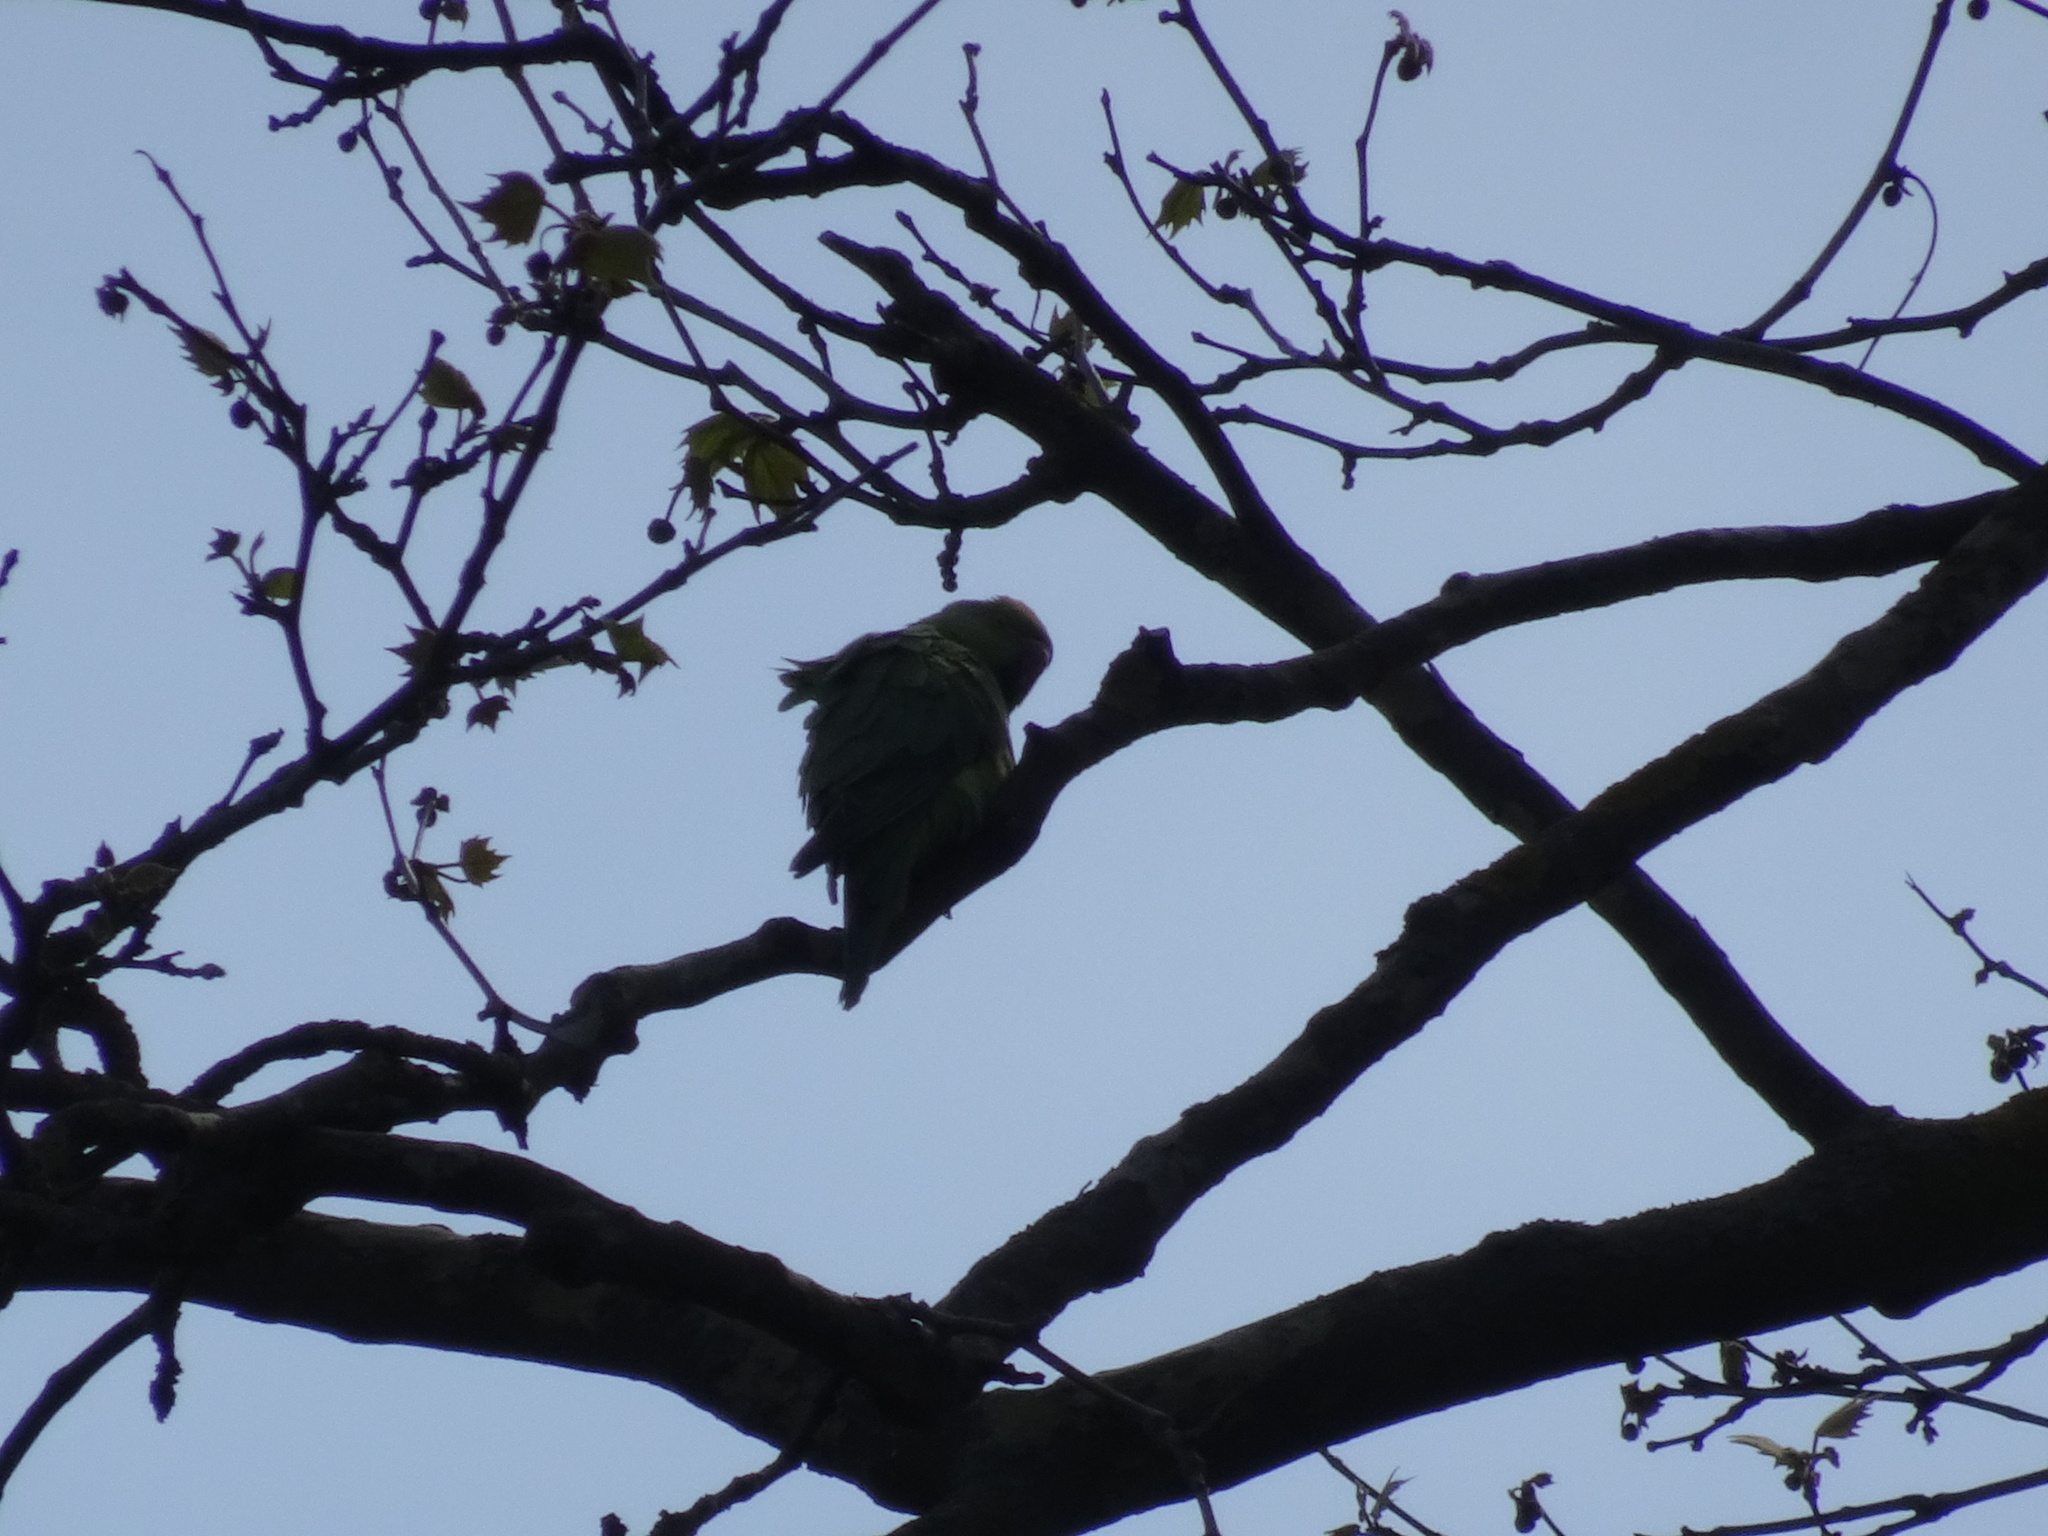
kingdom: Animalia
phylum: Chordata
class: Aves
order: Psittaciformes
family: Psittacidae
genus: Psittacula
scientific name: Psittacula krameri
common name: Rose-ringed parakeet
